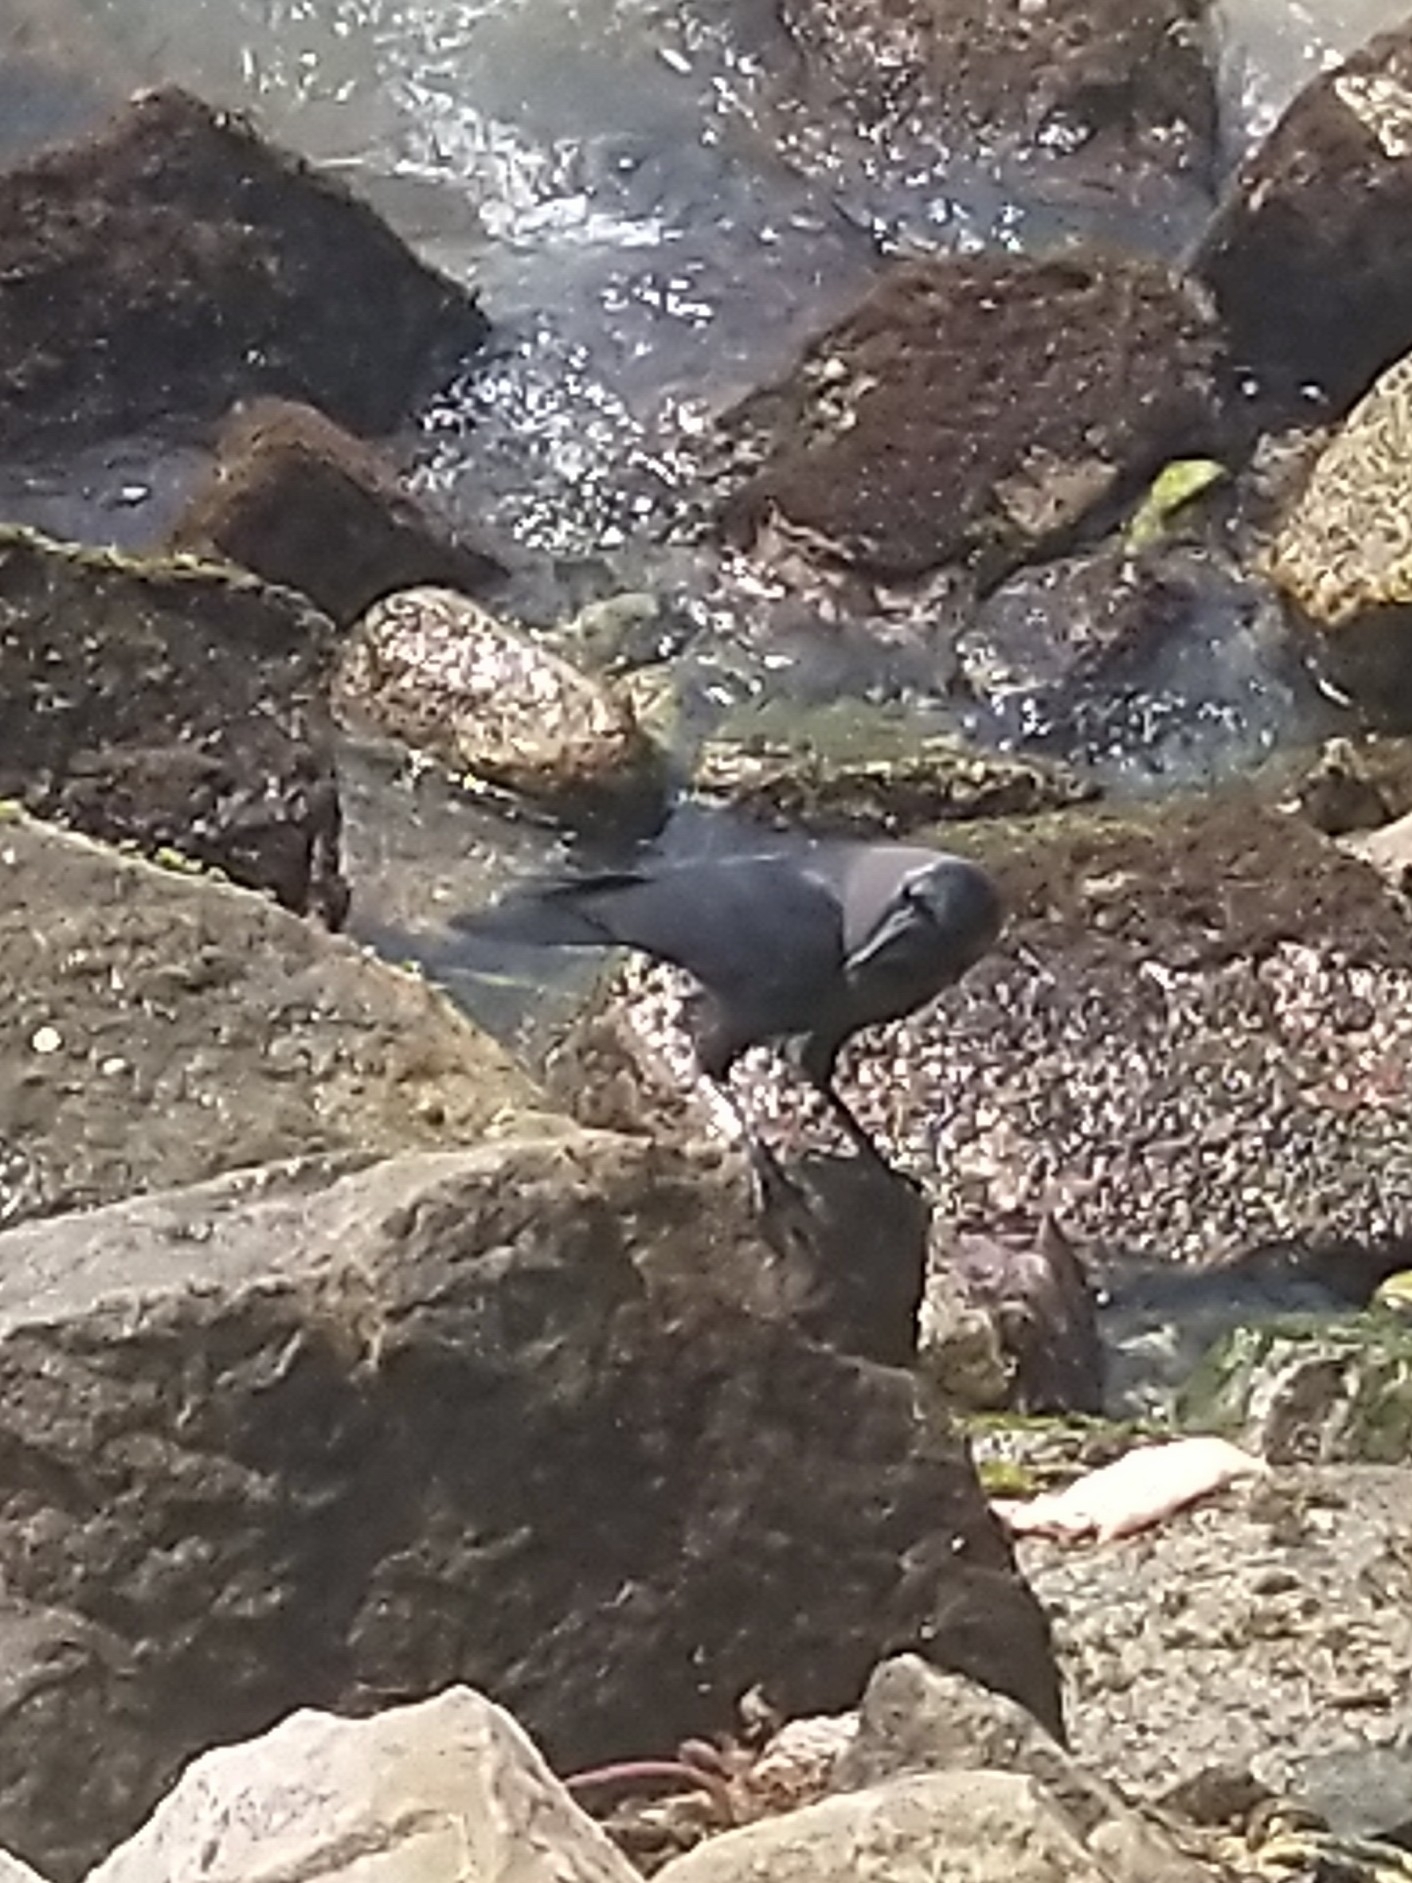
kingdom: Animalia
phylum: Chordata
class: Aves
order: Passeriformes
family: Corvidae
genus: Corvus
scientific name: Corvus splendens
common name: House crow
